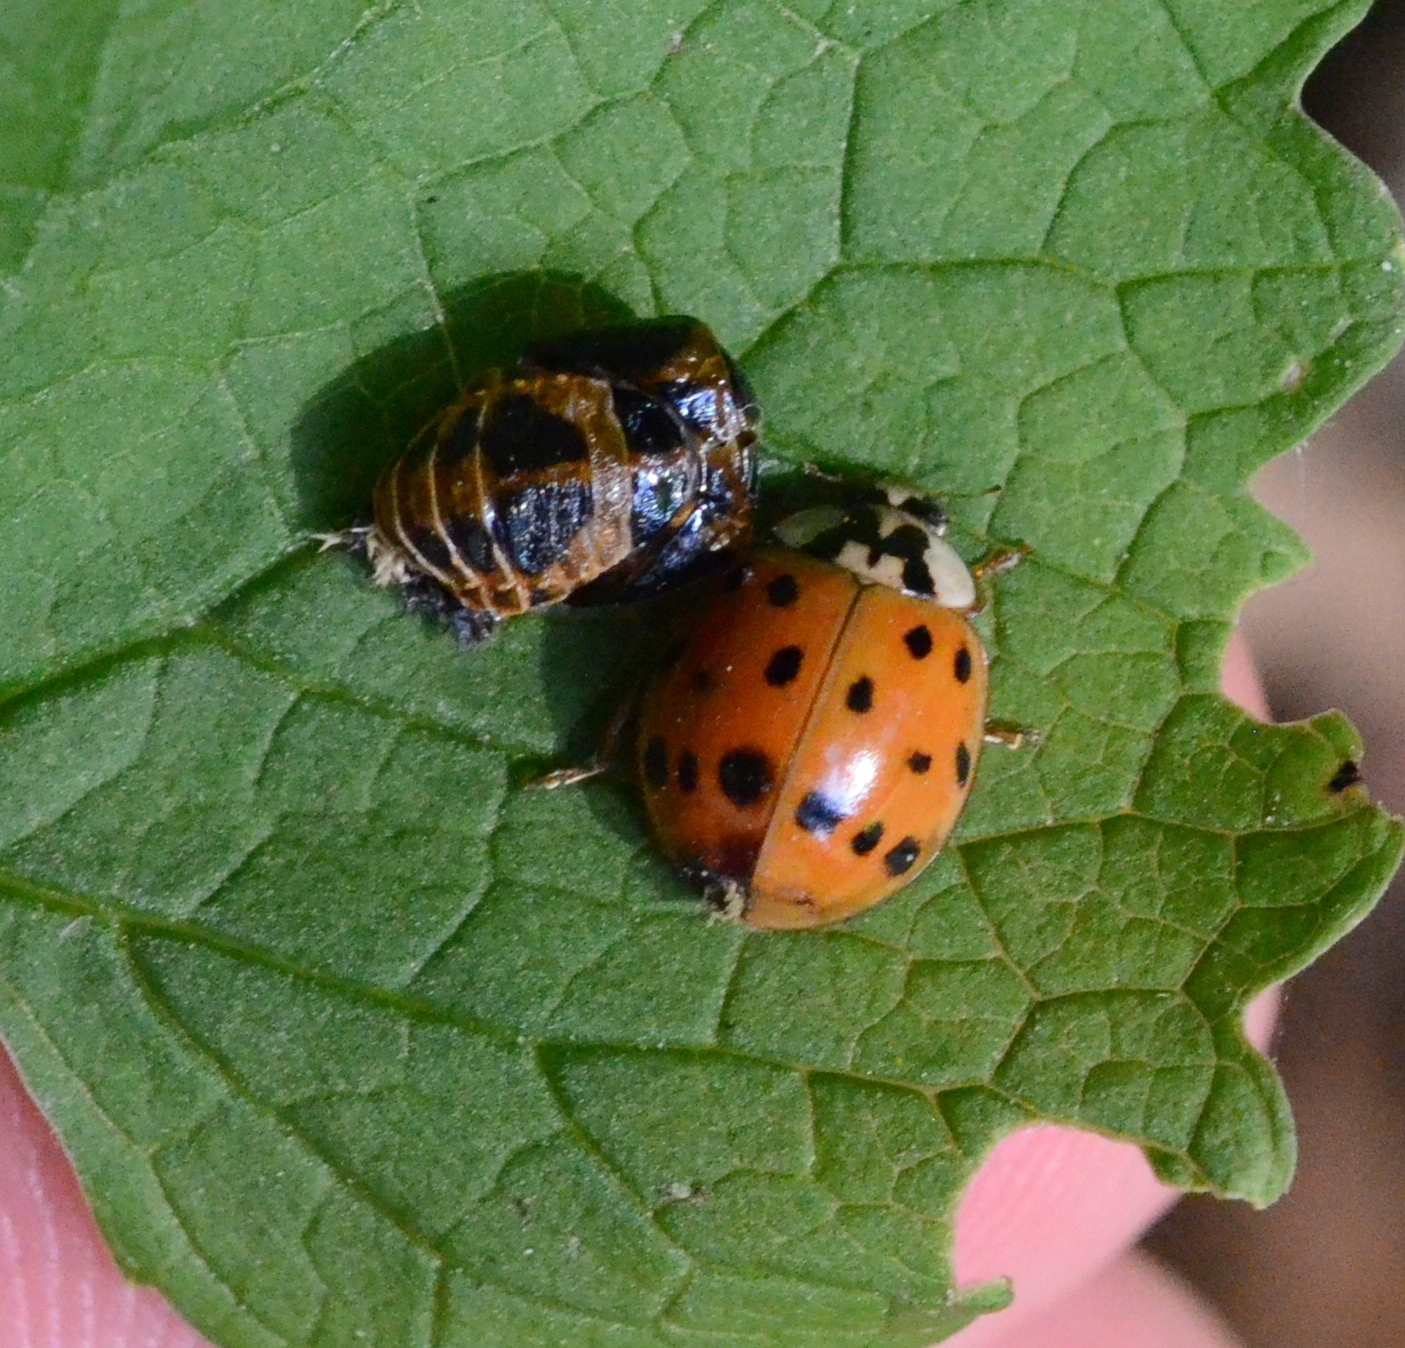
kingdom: Animalia
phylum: Arthropoda
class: Insecta
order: Coleoptera
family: Coccinellidae
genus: Harmonia
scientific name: Harmonia axyridis
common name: Harlequin ladybird
